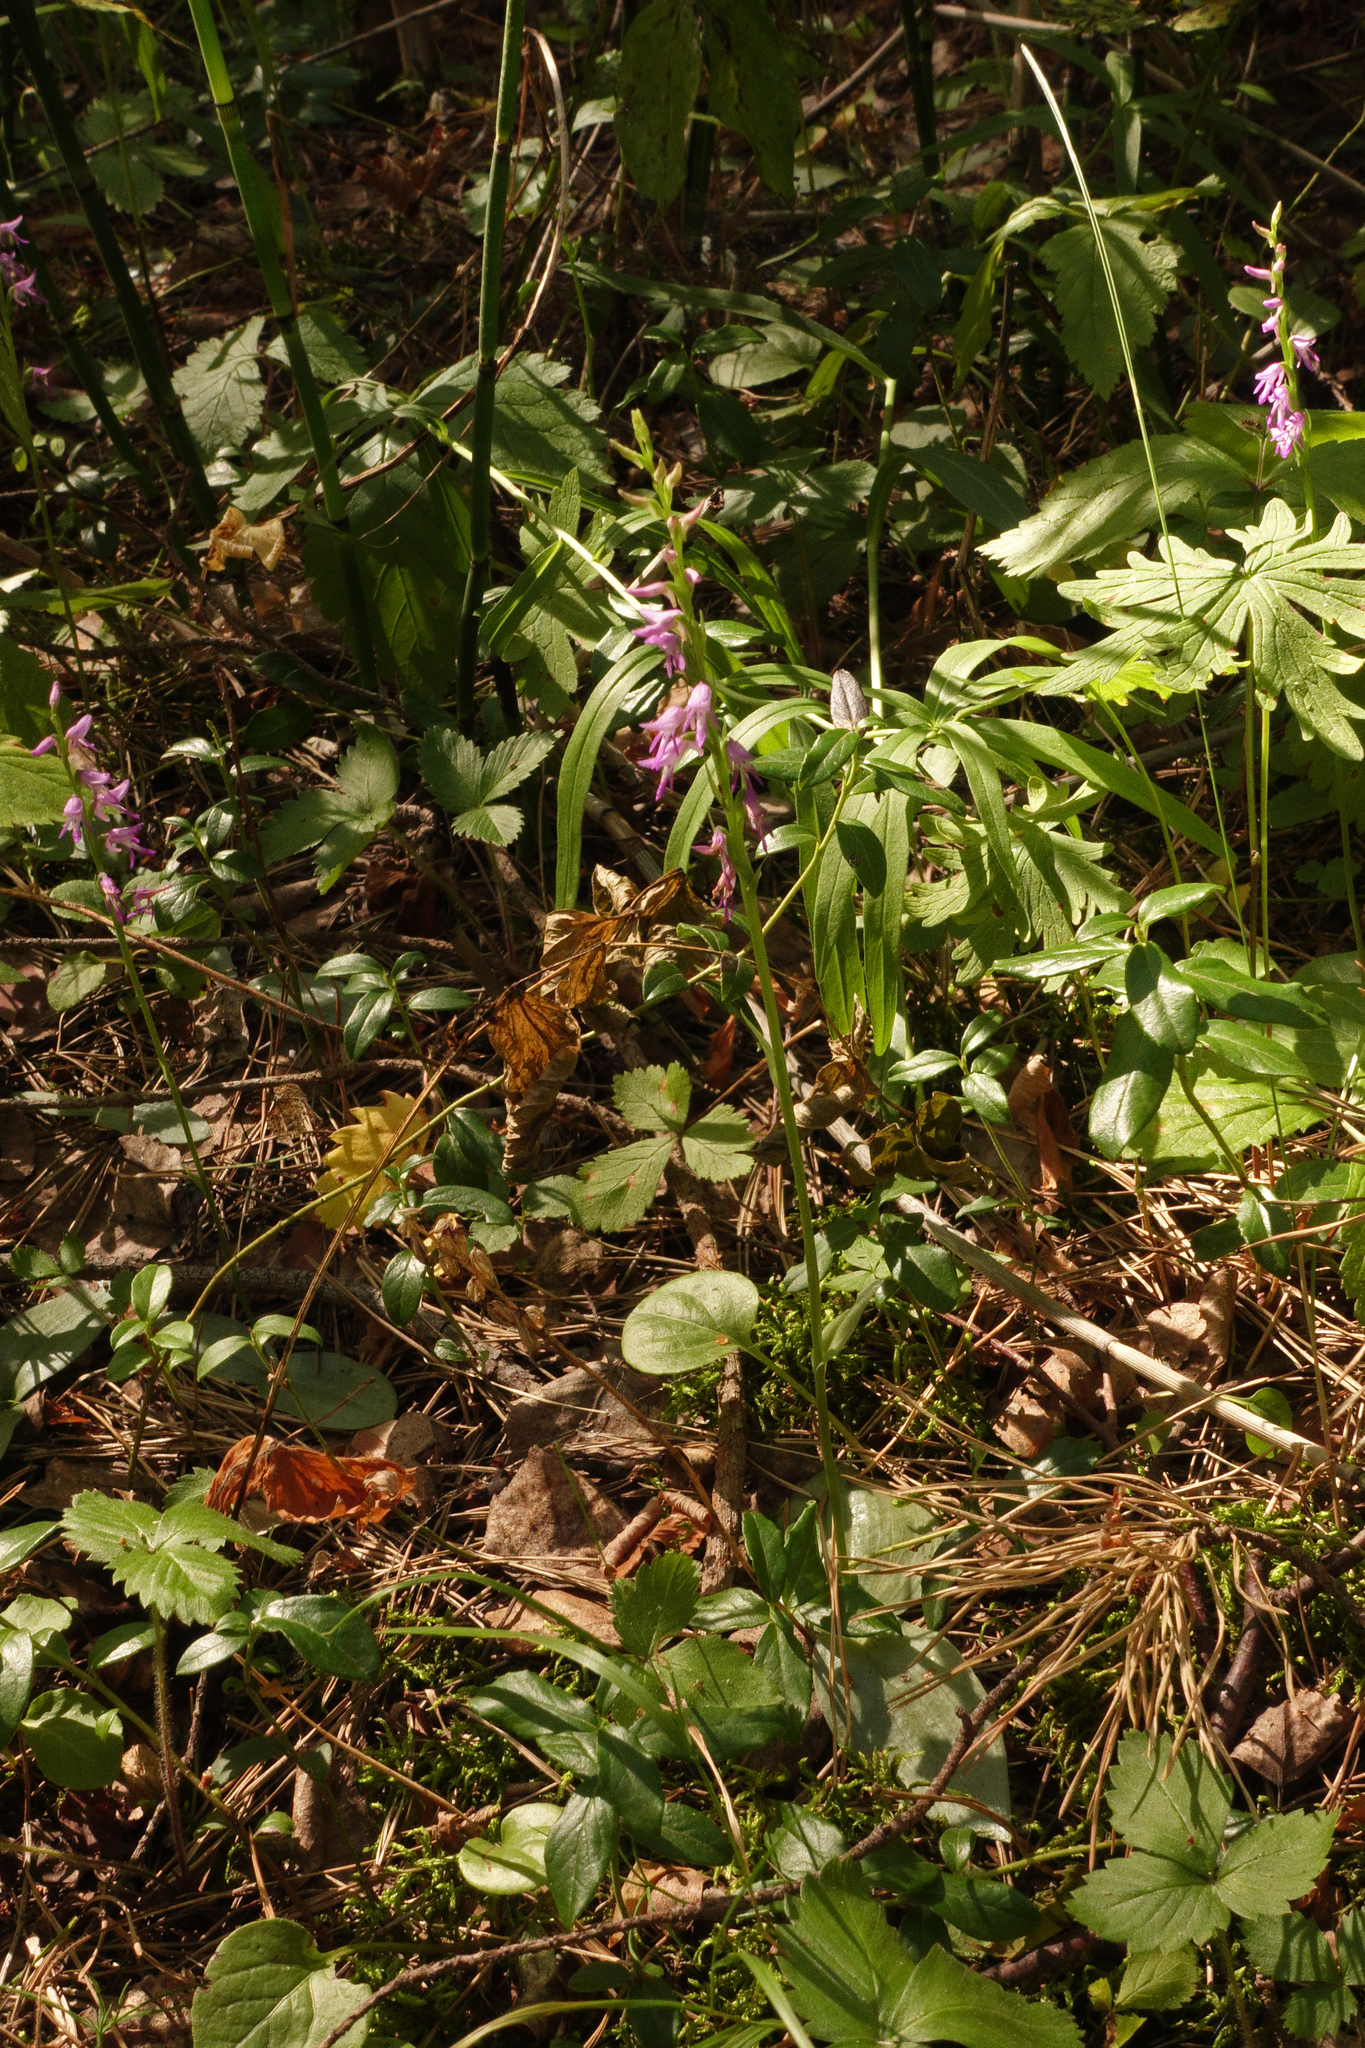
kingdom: Plantae
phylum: Tracheophyta
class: Liliopsida
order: Asparagales
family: Orchidaceae
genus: Hemipilia
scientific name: Hemipilia cucullata
